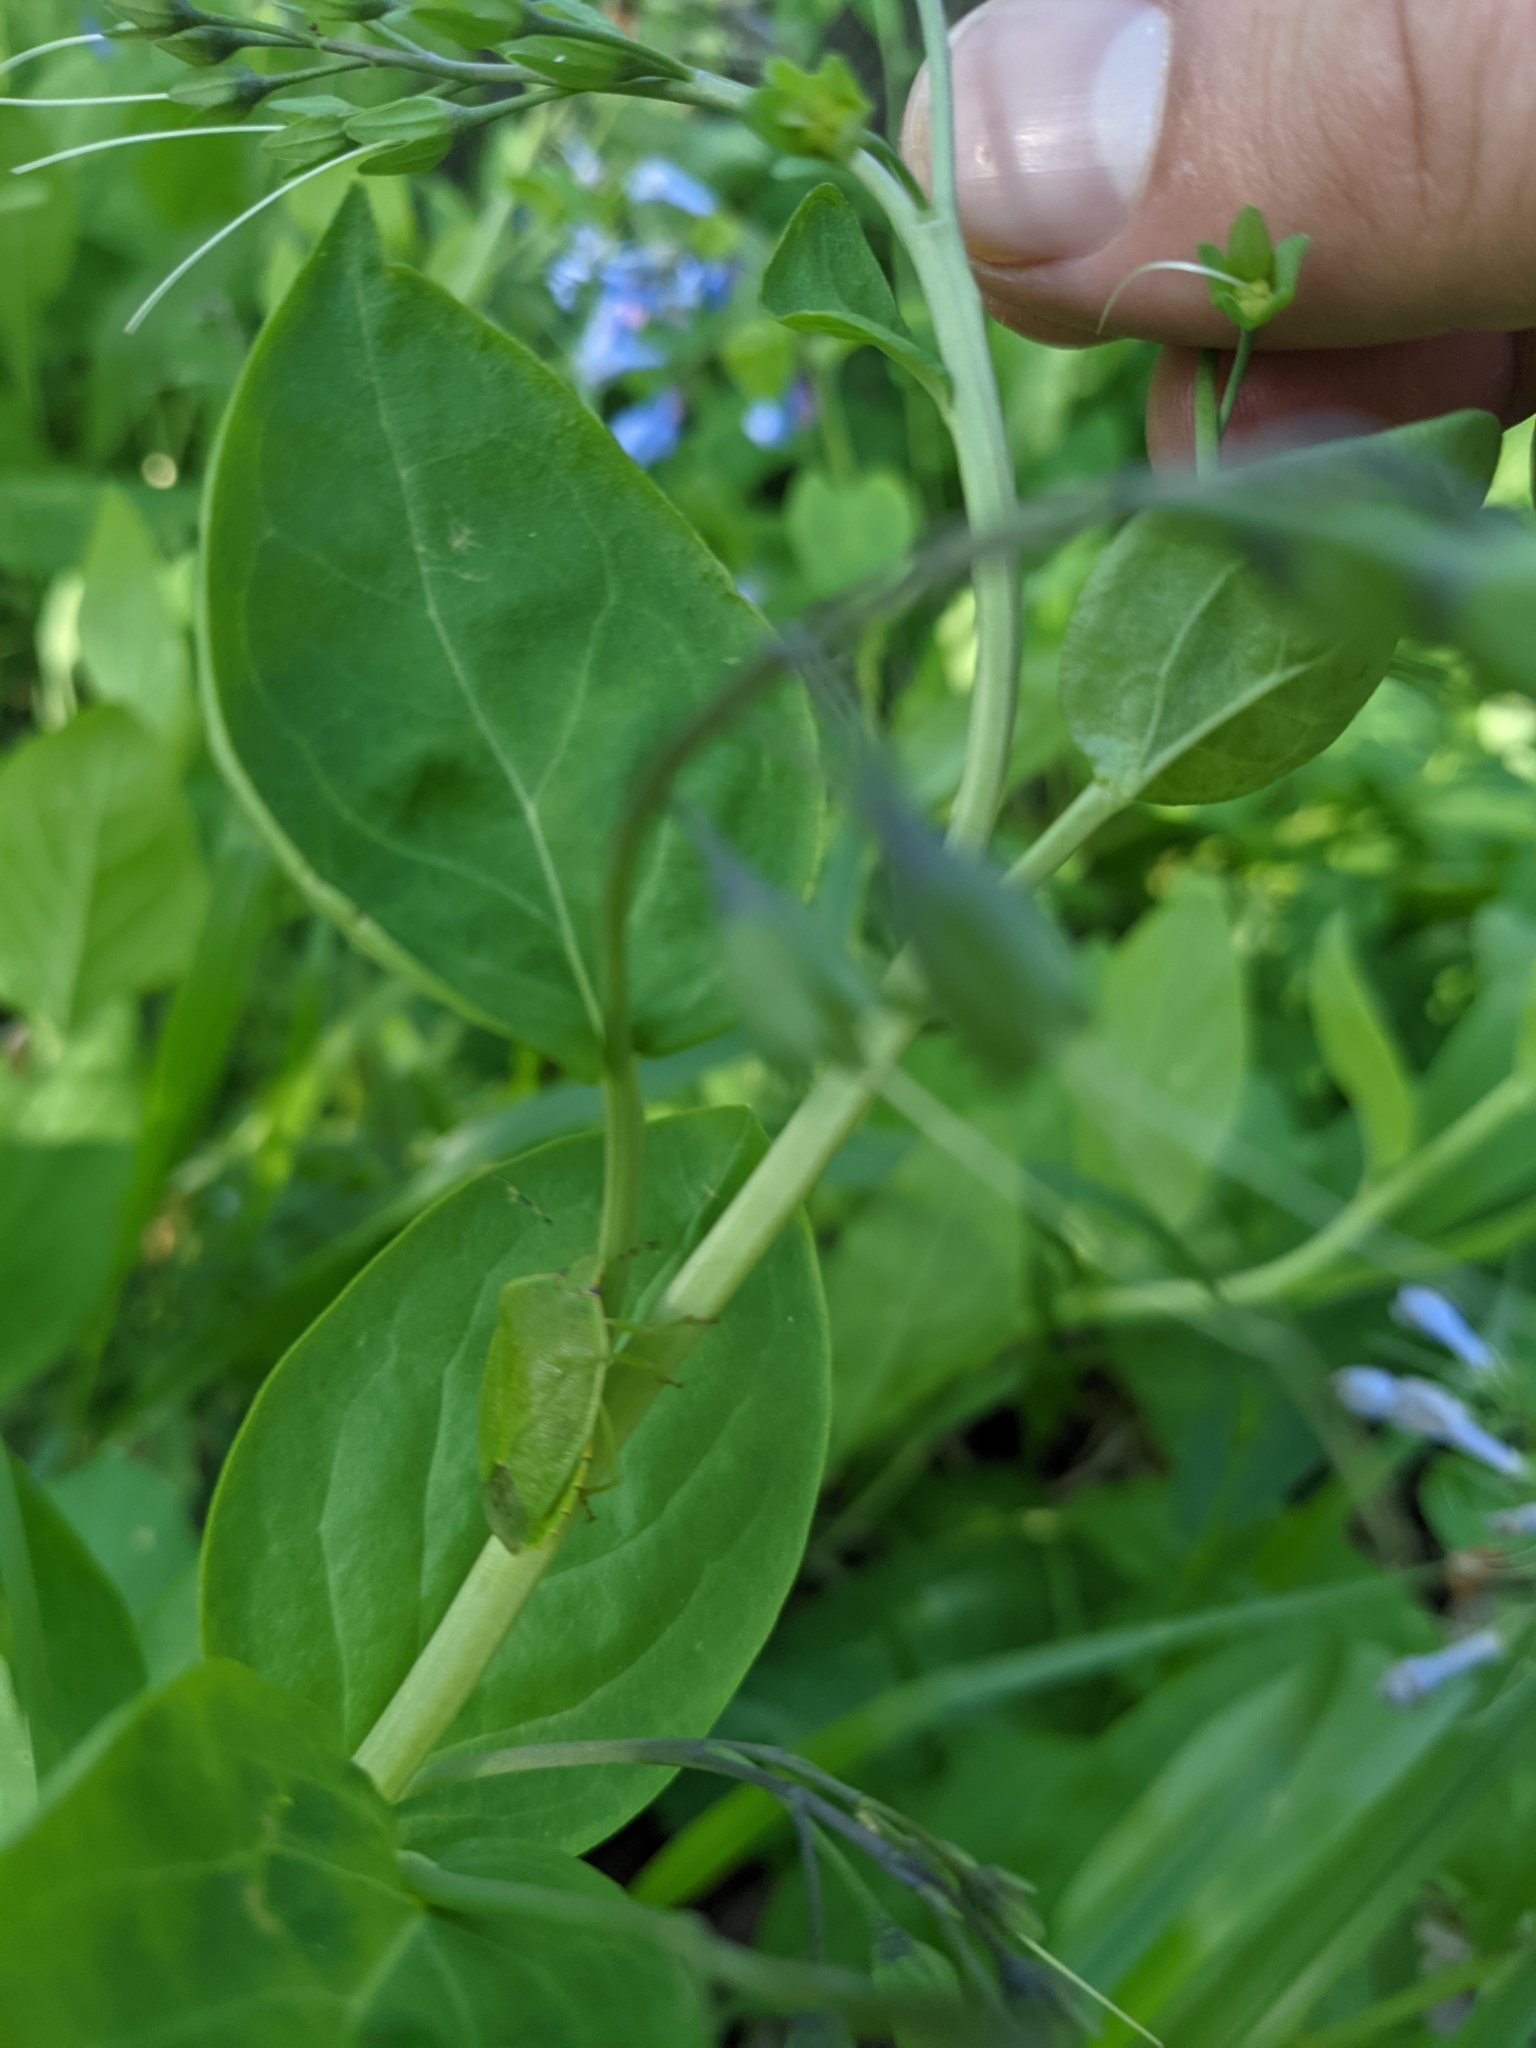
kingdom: Animalia
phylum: Arthropoda
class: Insecta
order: Hemiptera
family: Pentatomidae
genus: Chinavia
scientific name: Chinavia hilaris
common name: Green stink bug
